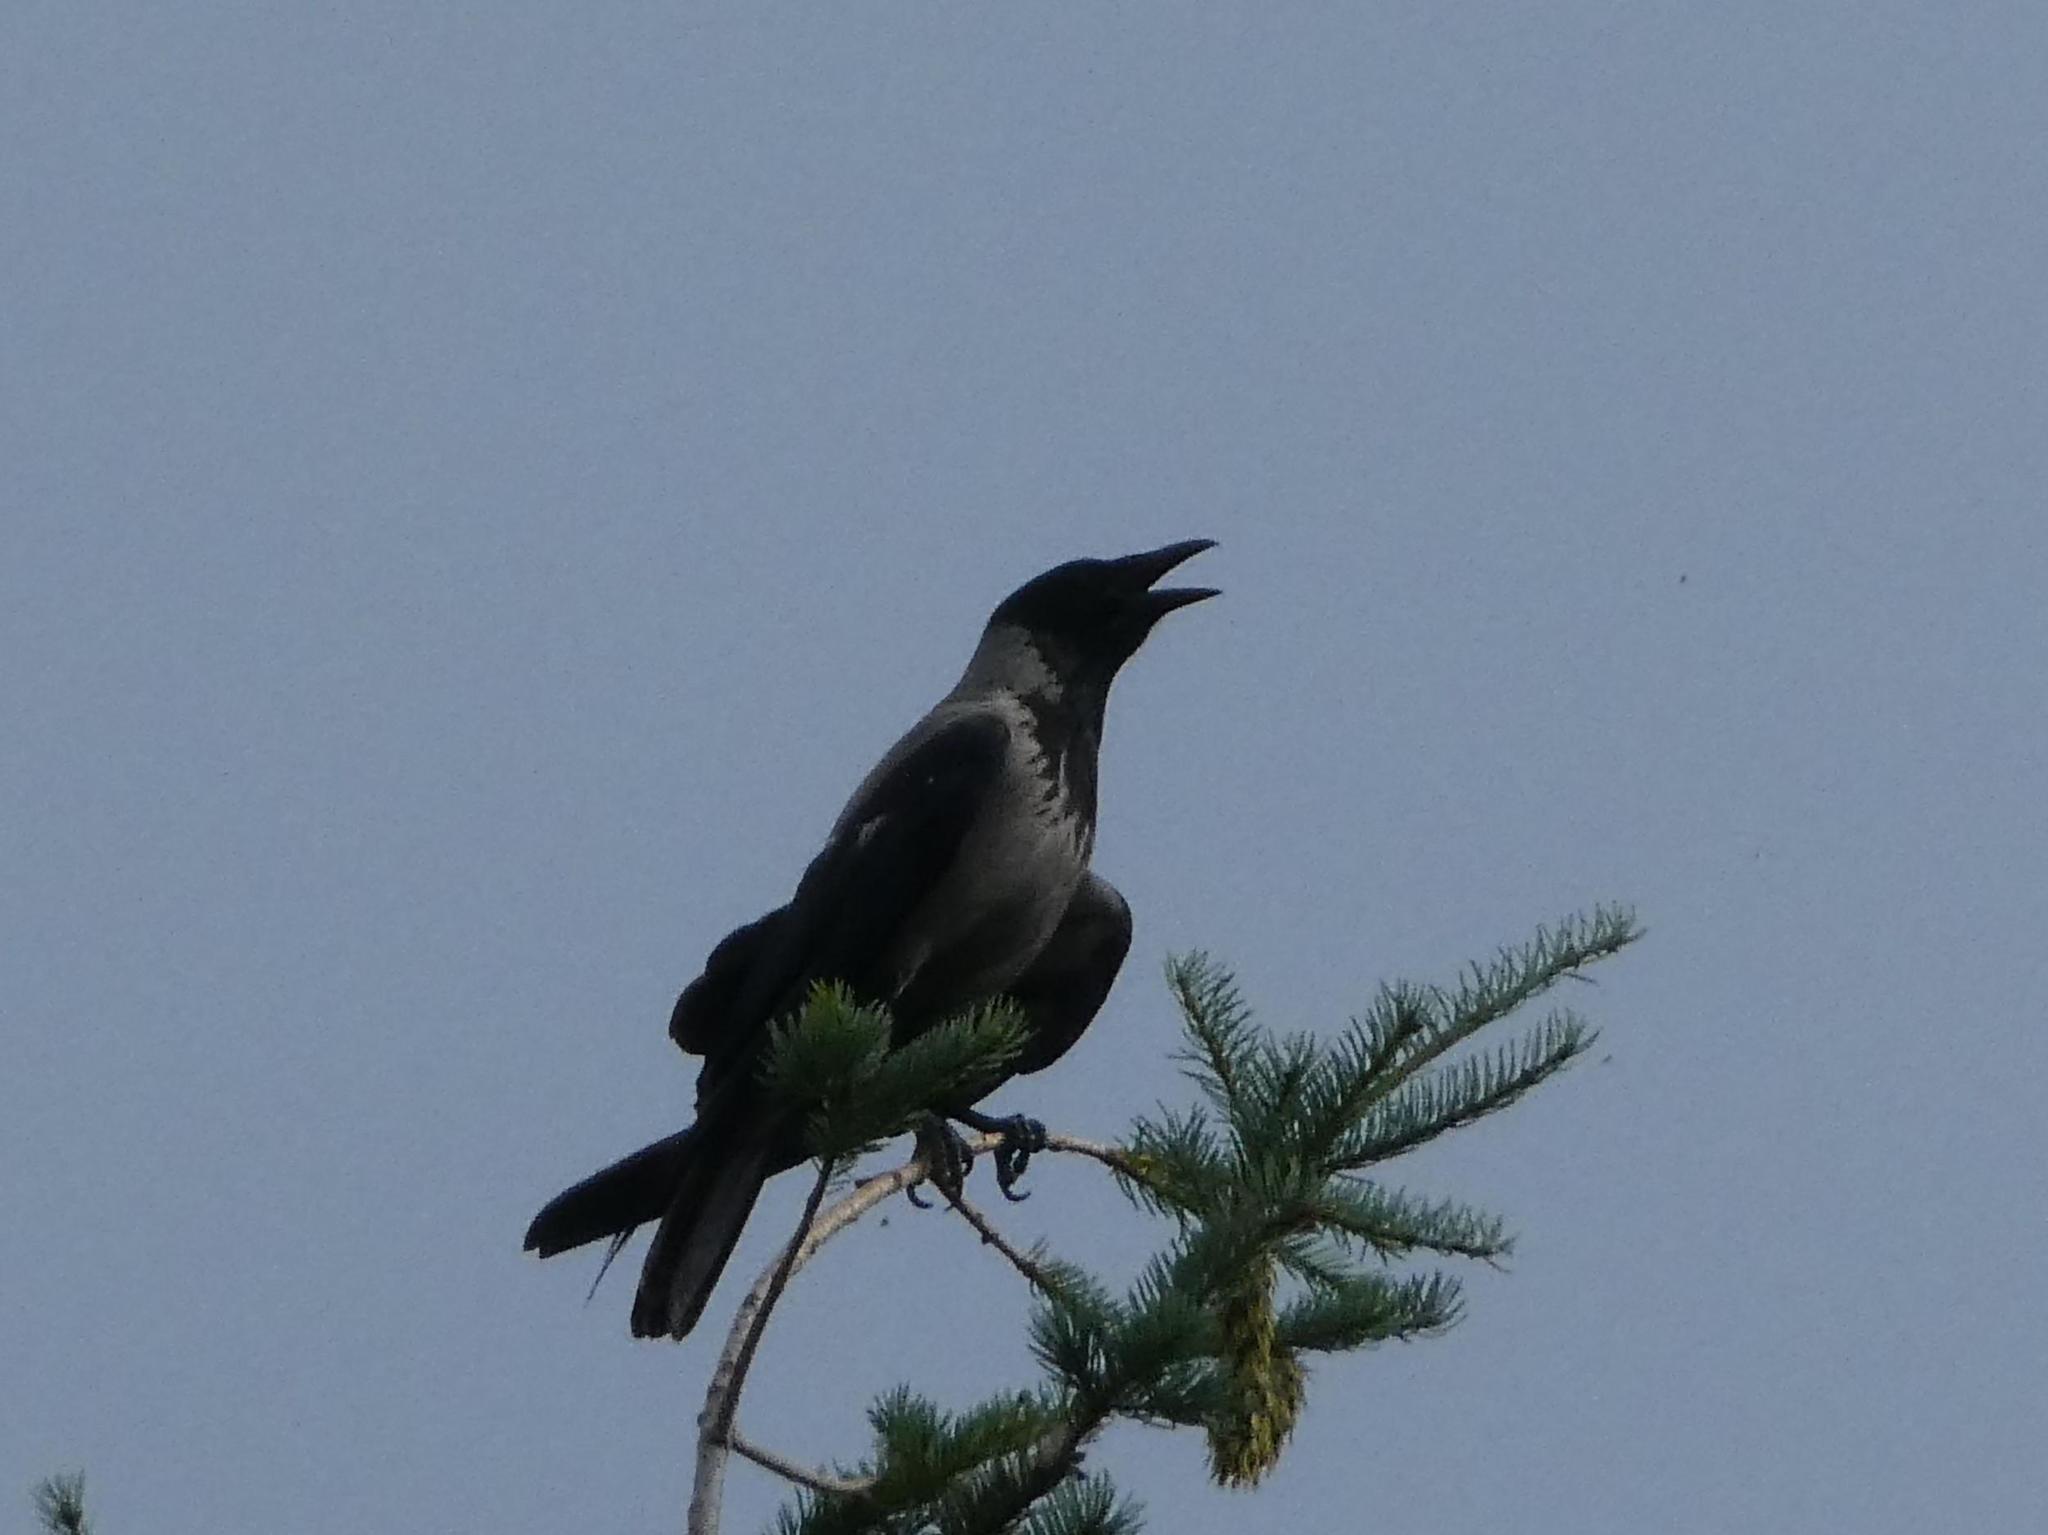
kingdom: Animalia
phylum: Chordata
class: Aves
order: Passeriformes
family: Corvidae
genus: Corvus
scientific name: Corvus cornix
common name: Hooded crow
